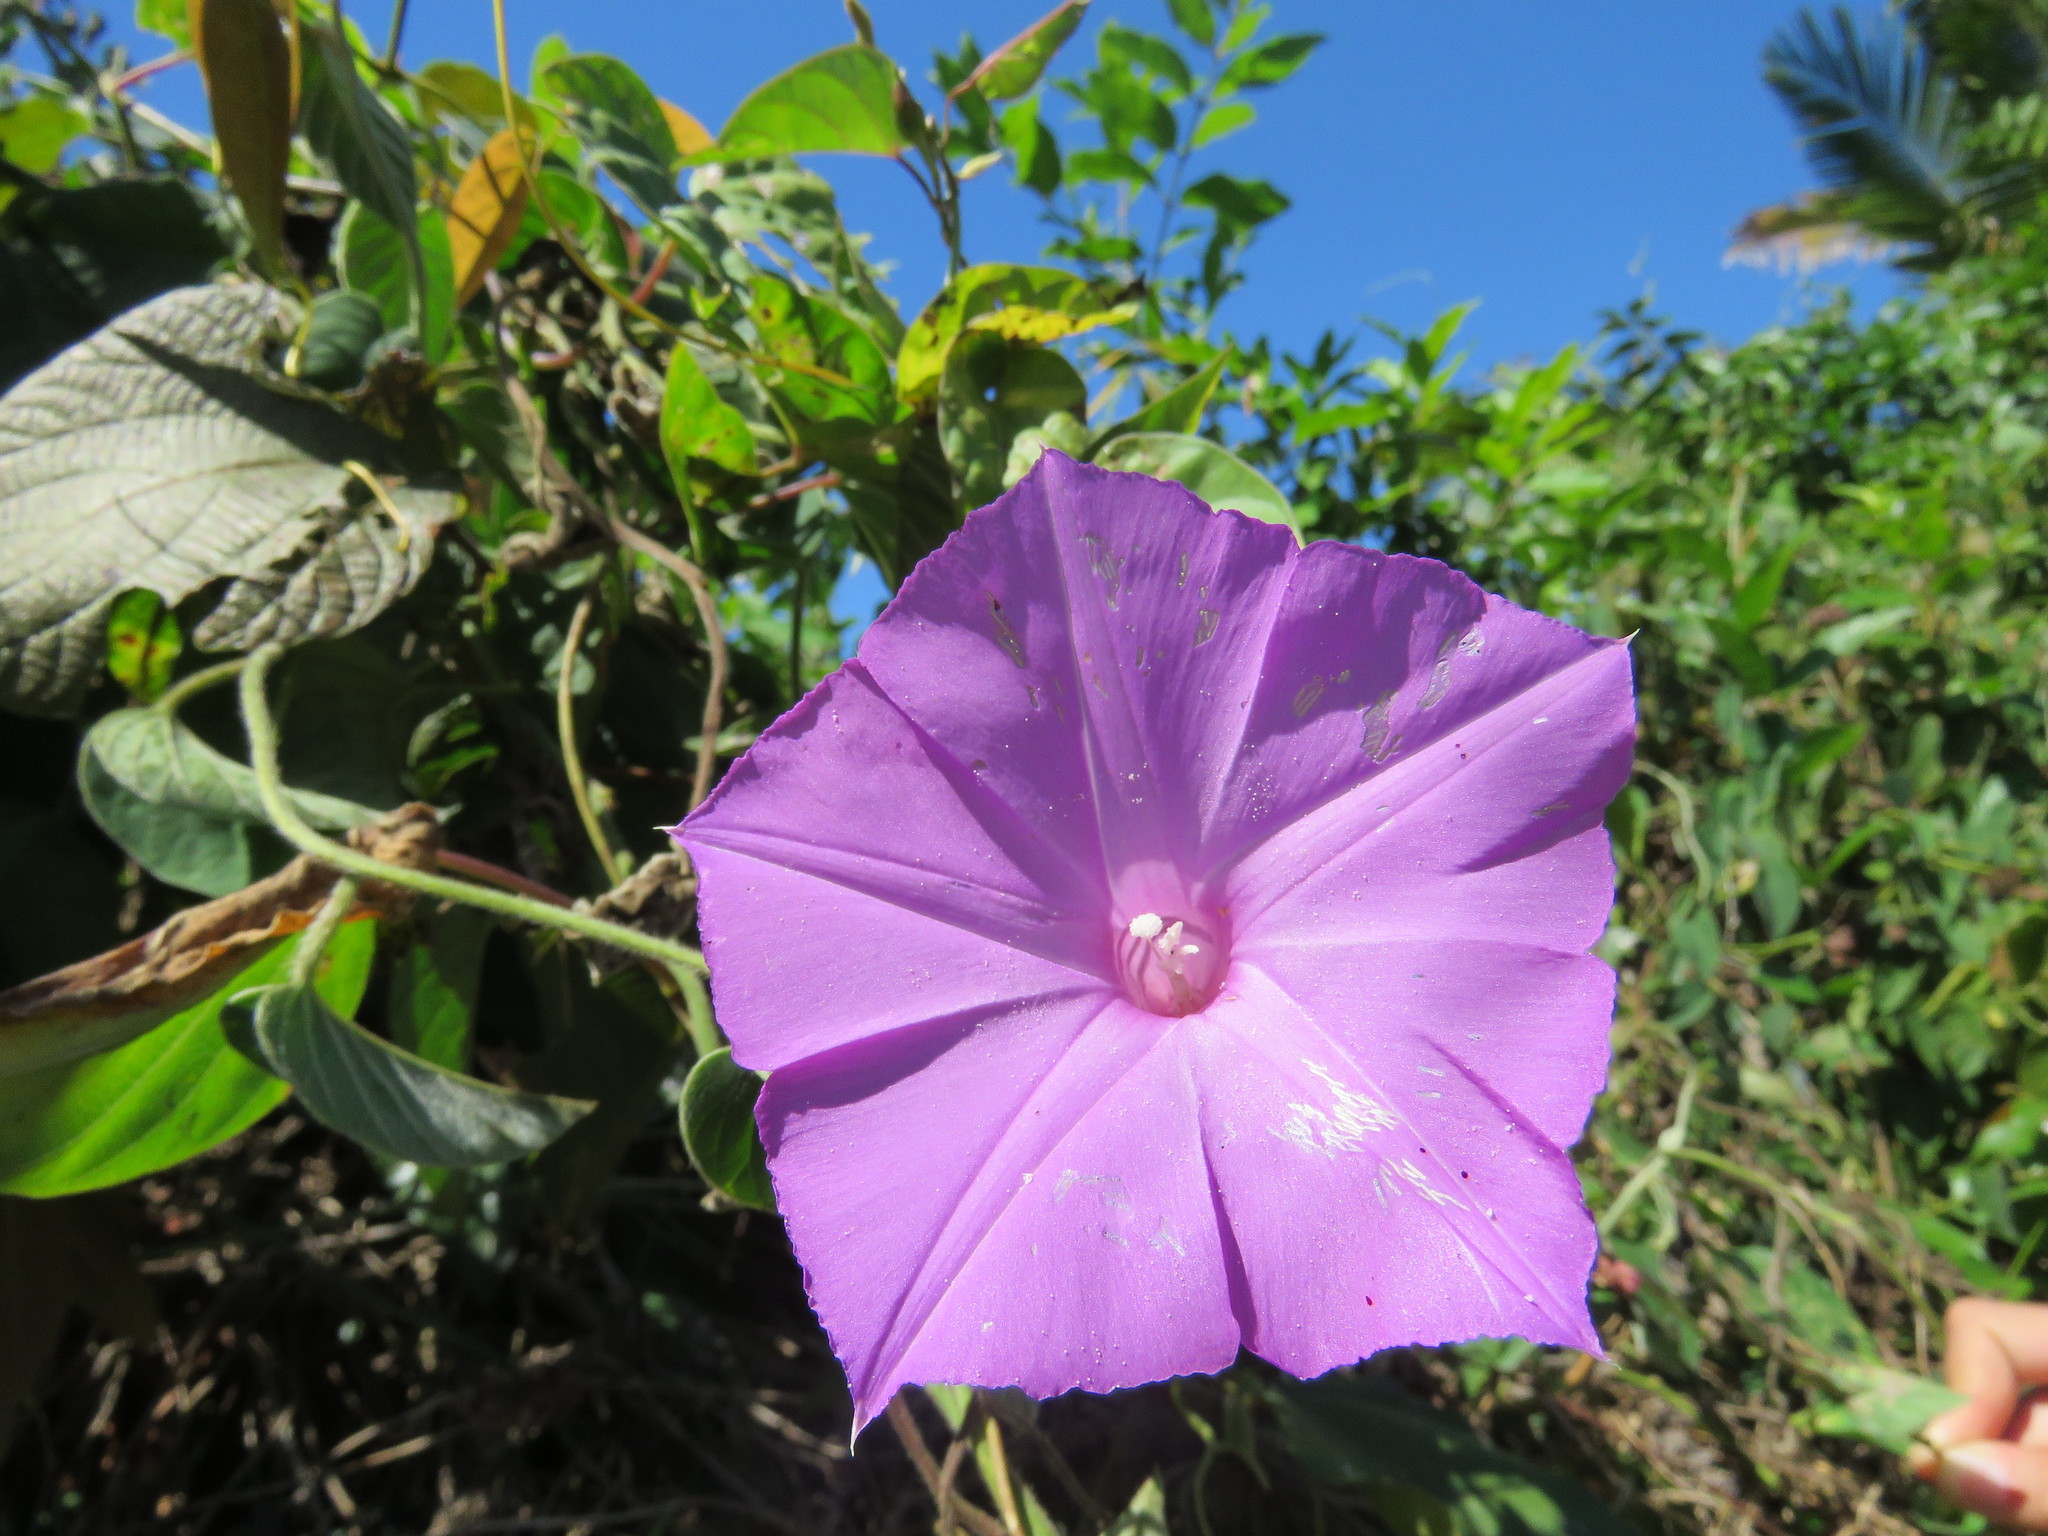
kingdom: Plantae
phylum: Tracheophyta
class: Magnoliopsida
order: Solanales
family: Convolvulaceae
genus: Ipomoea
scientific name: Ipomoea dumosa
